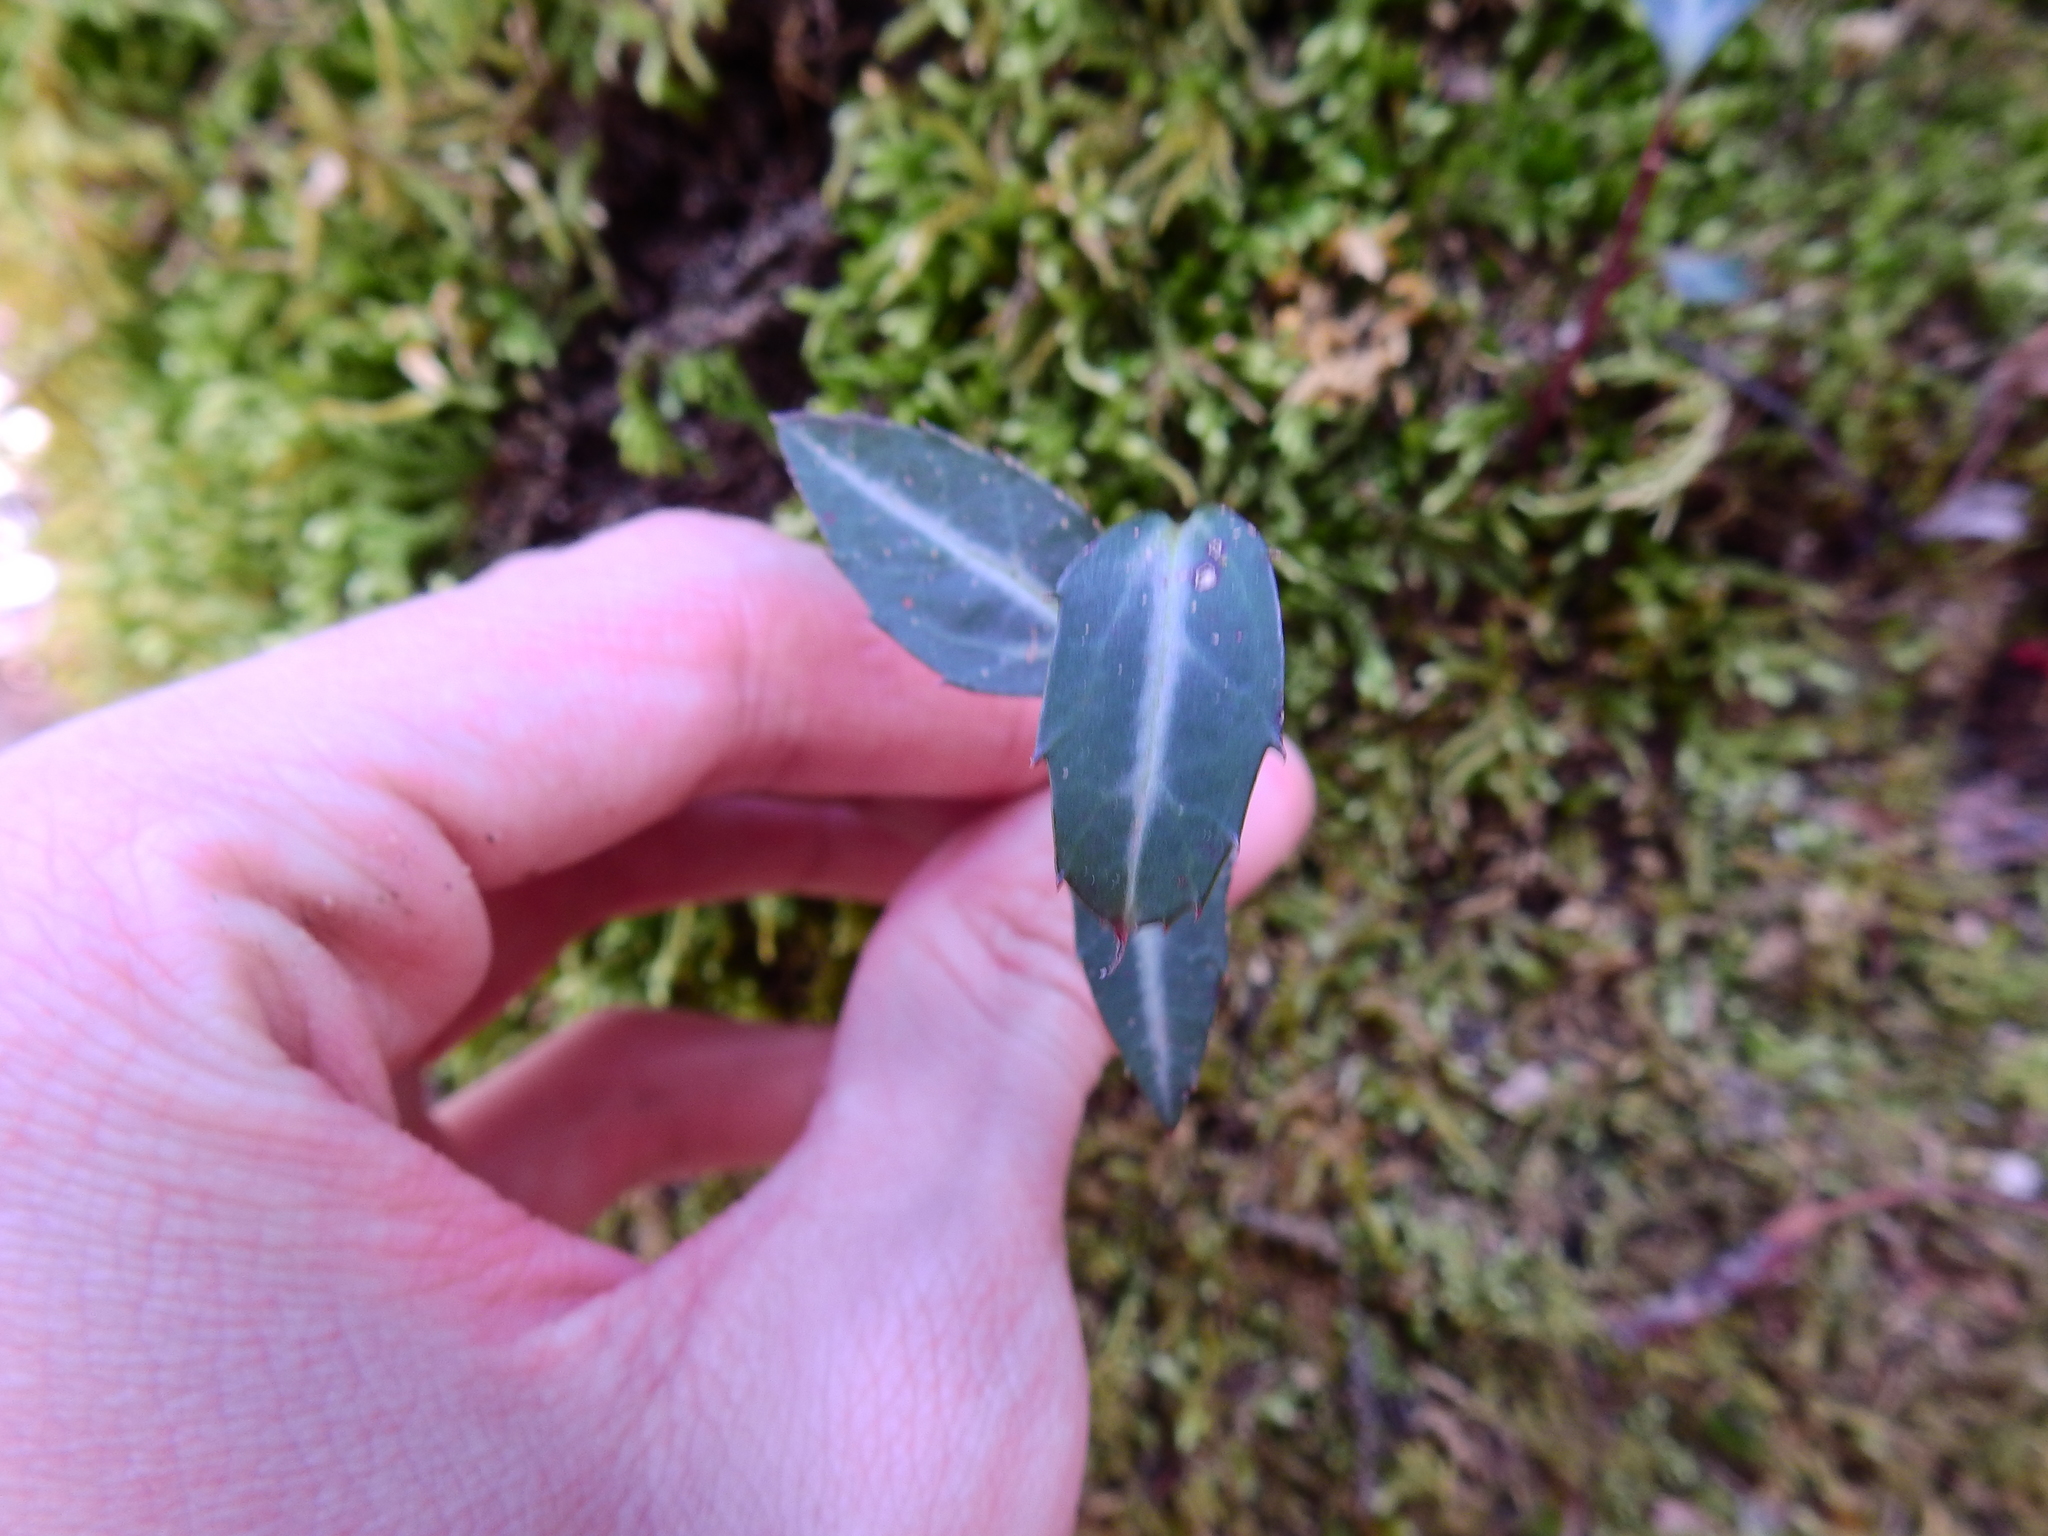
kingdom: Plantae
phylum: Tracheophyta
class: Magnoliopsida
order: Ericales
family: Ericaceae
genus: Chimaphila
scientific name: Chimaphila maculata
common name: Spotted pipsissewa
